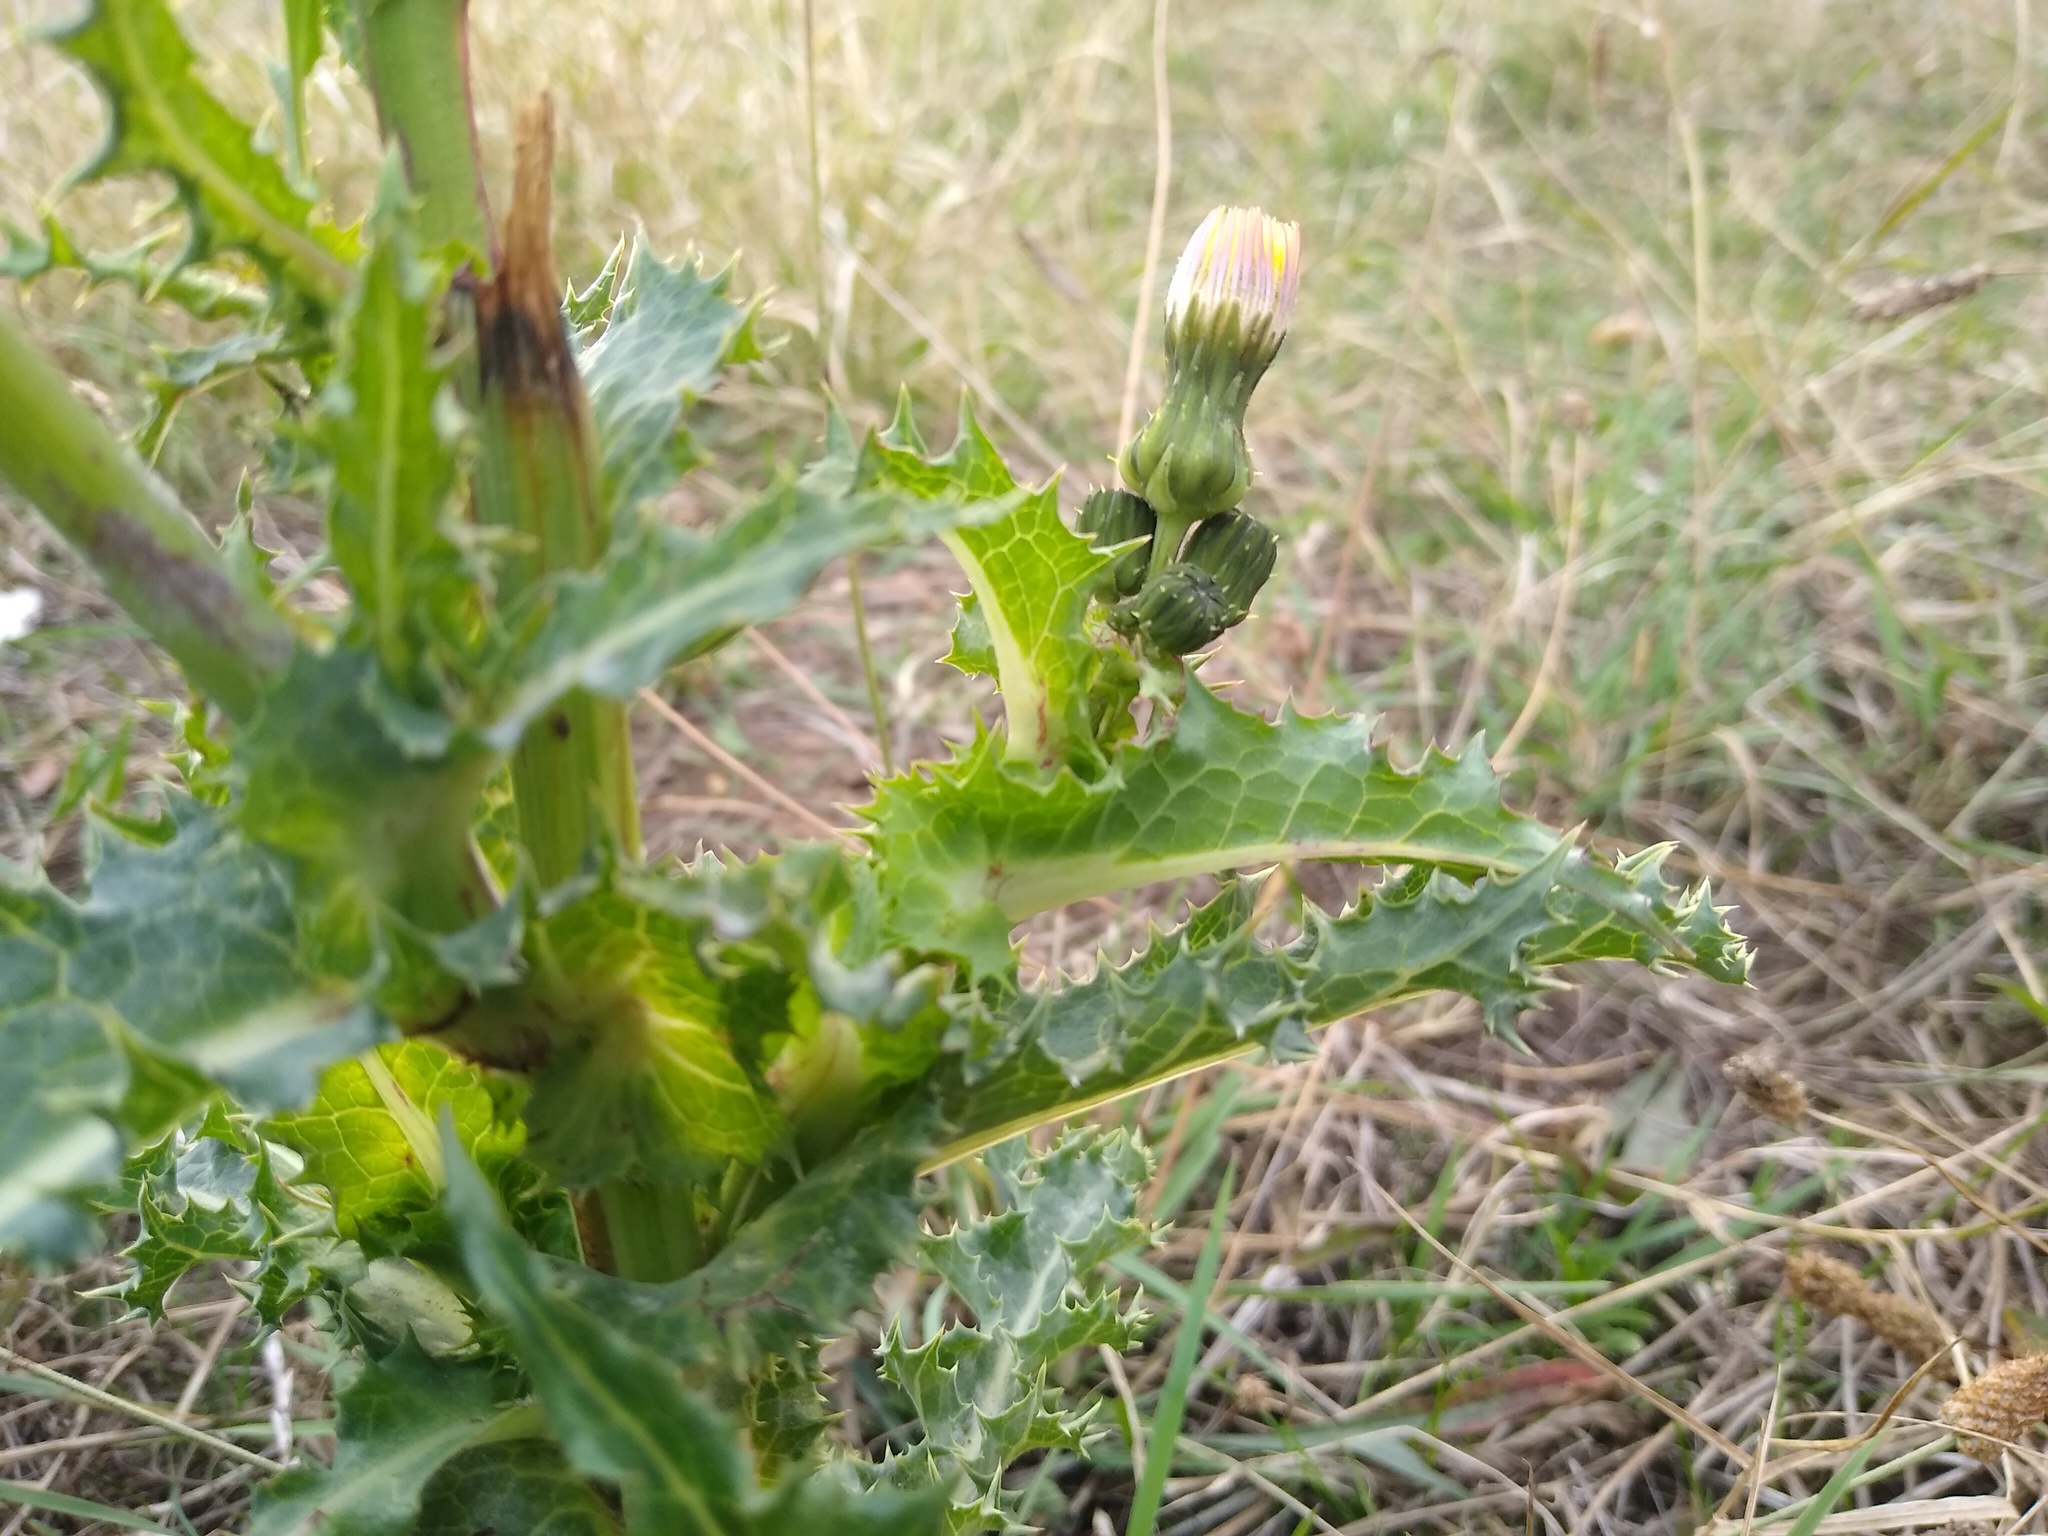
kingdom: Plantae
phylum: Tracheophyta
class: Magnoliopsida
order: Asterales
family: Asteraceae
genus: Sonchus
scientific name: Sonchus asper
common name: Prickly sow-thistle
